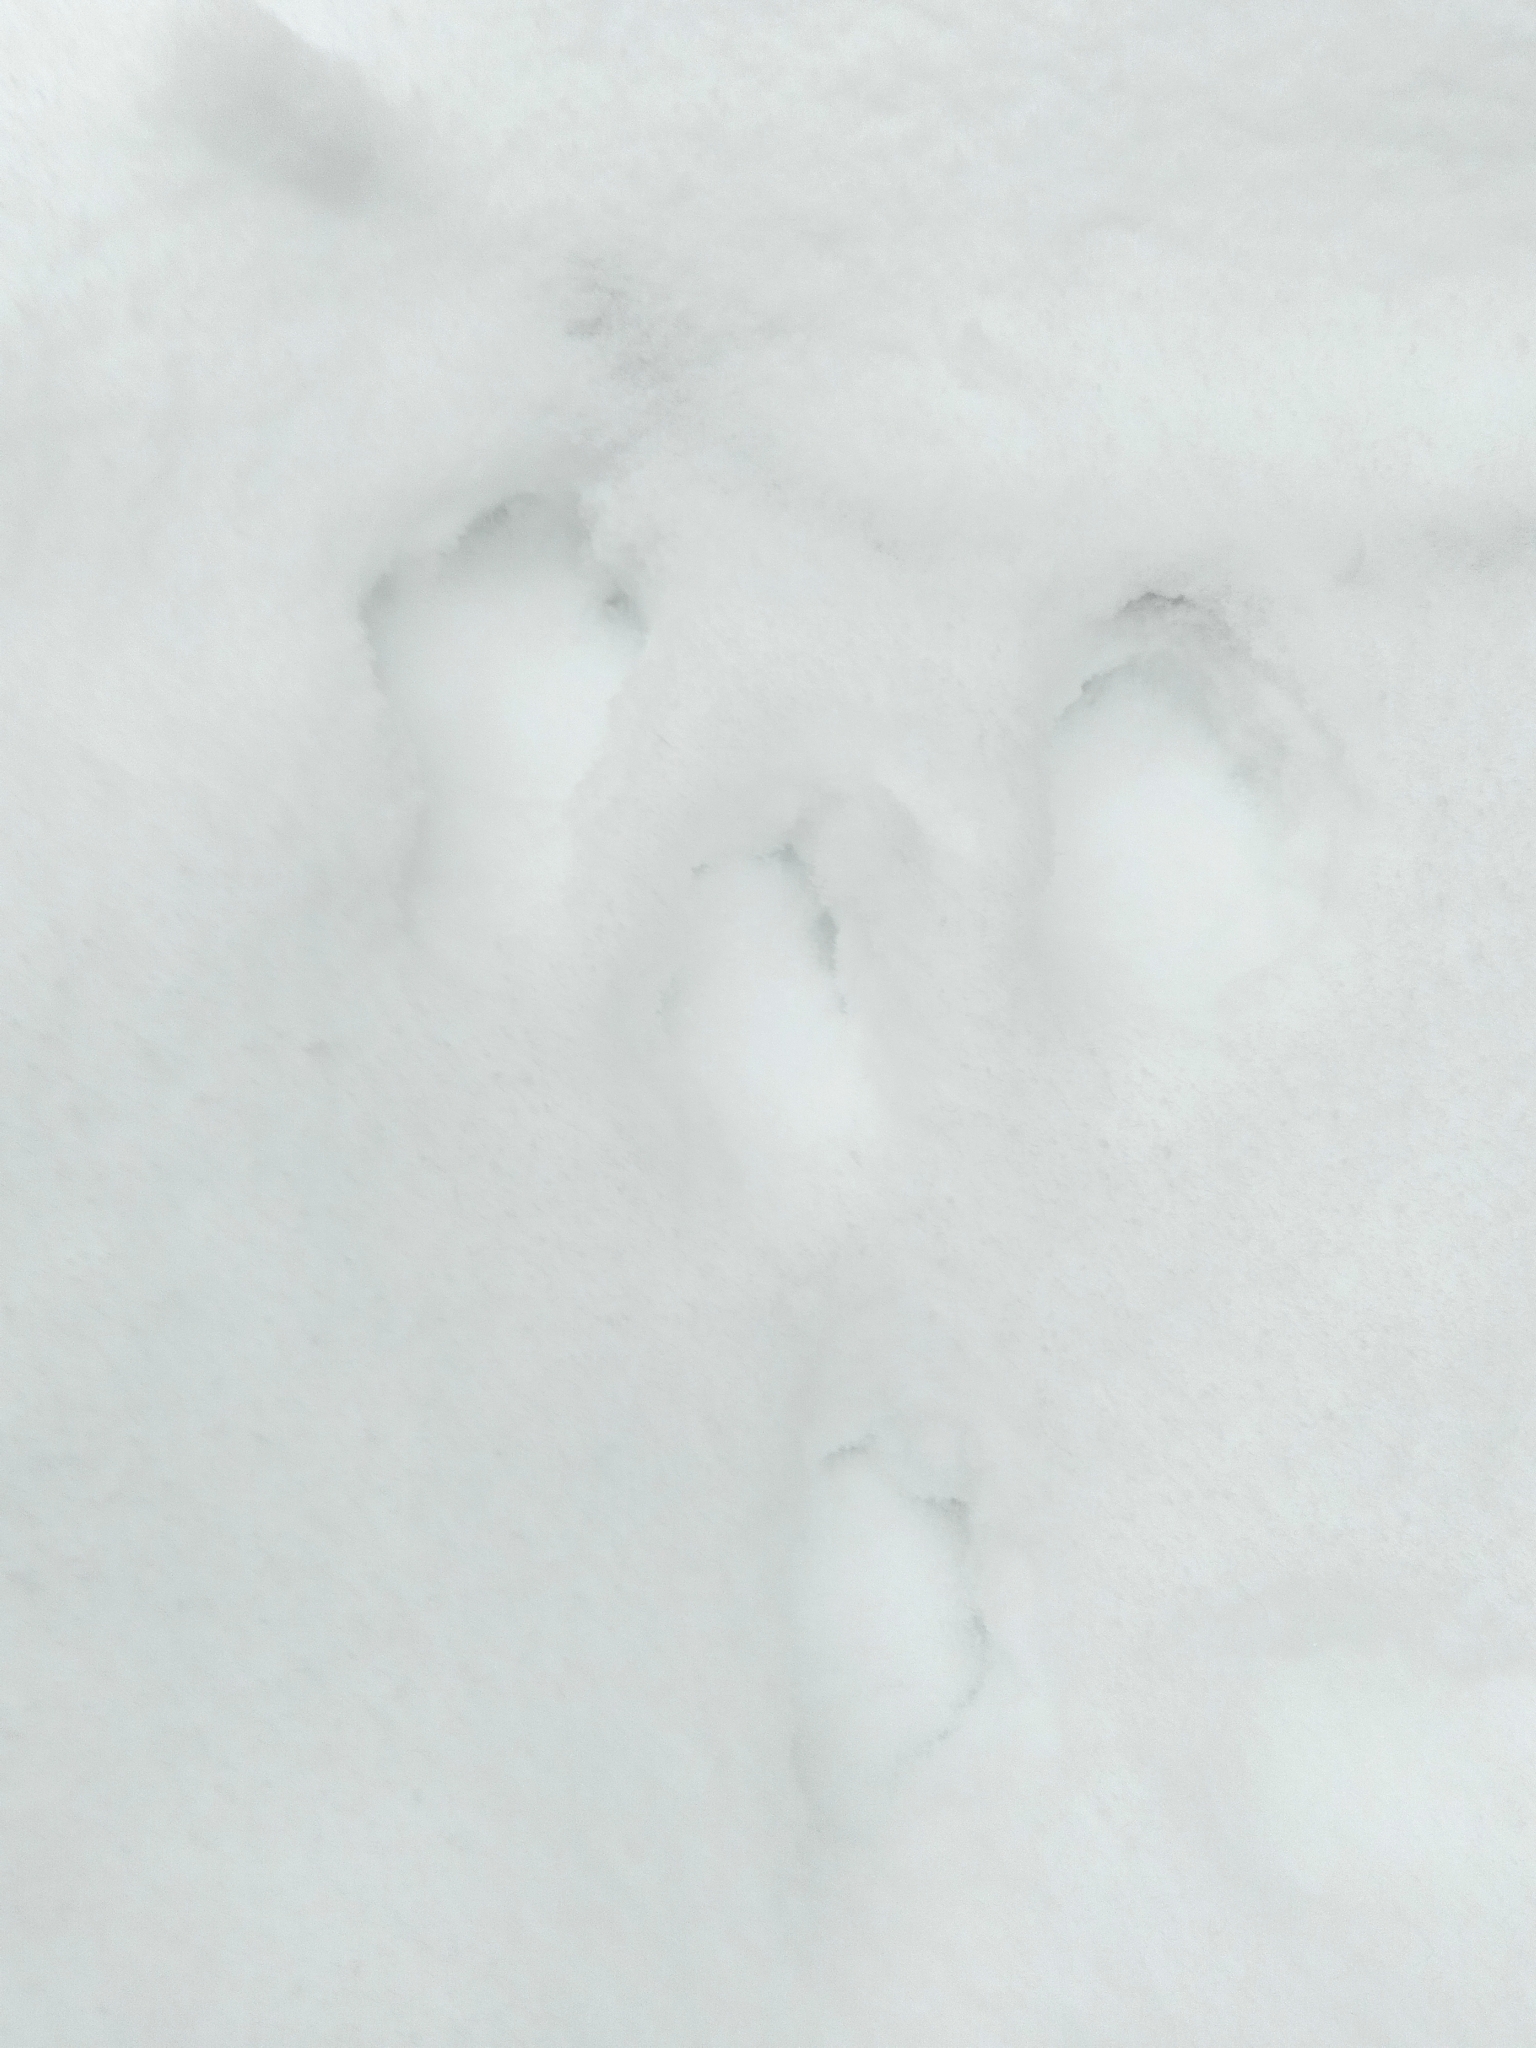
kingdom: Animalia
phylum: Chordata
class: Mammalia
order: Lagomorpha
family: Leporidae
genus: Lepus
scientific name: Lepus timidus
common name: Mountain hare
